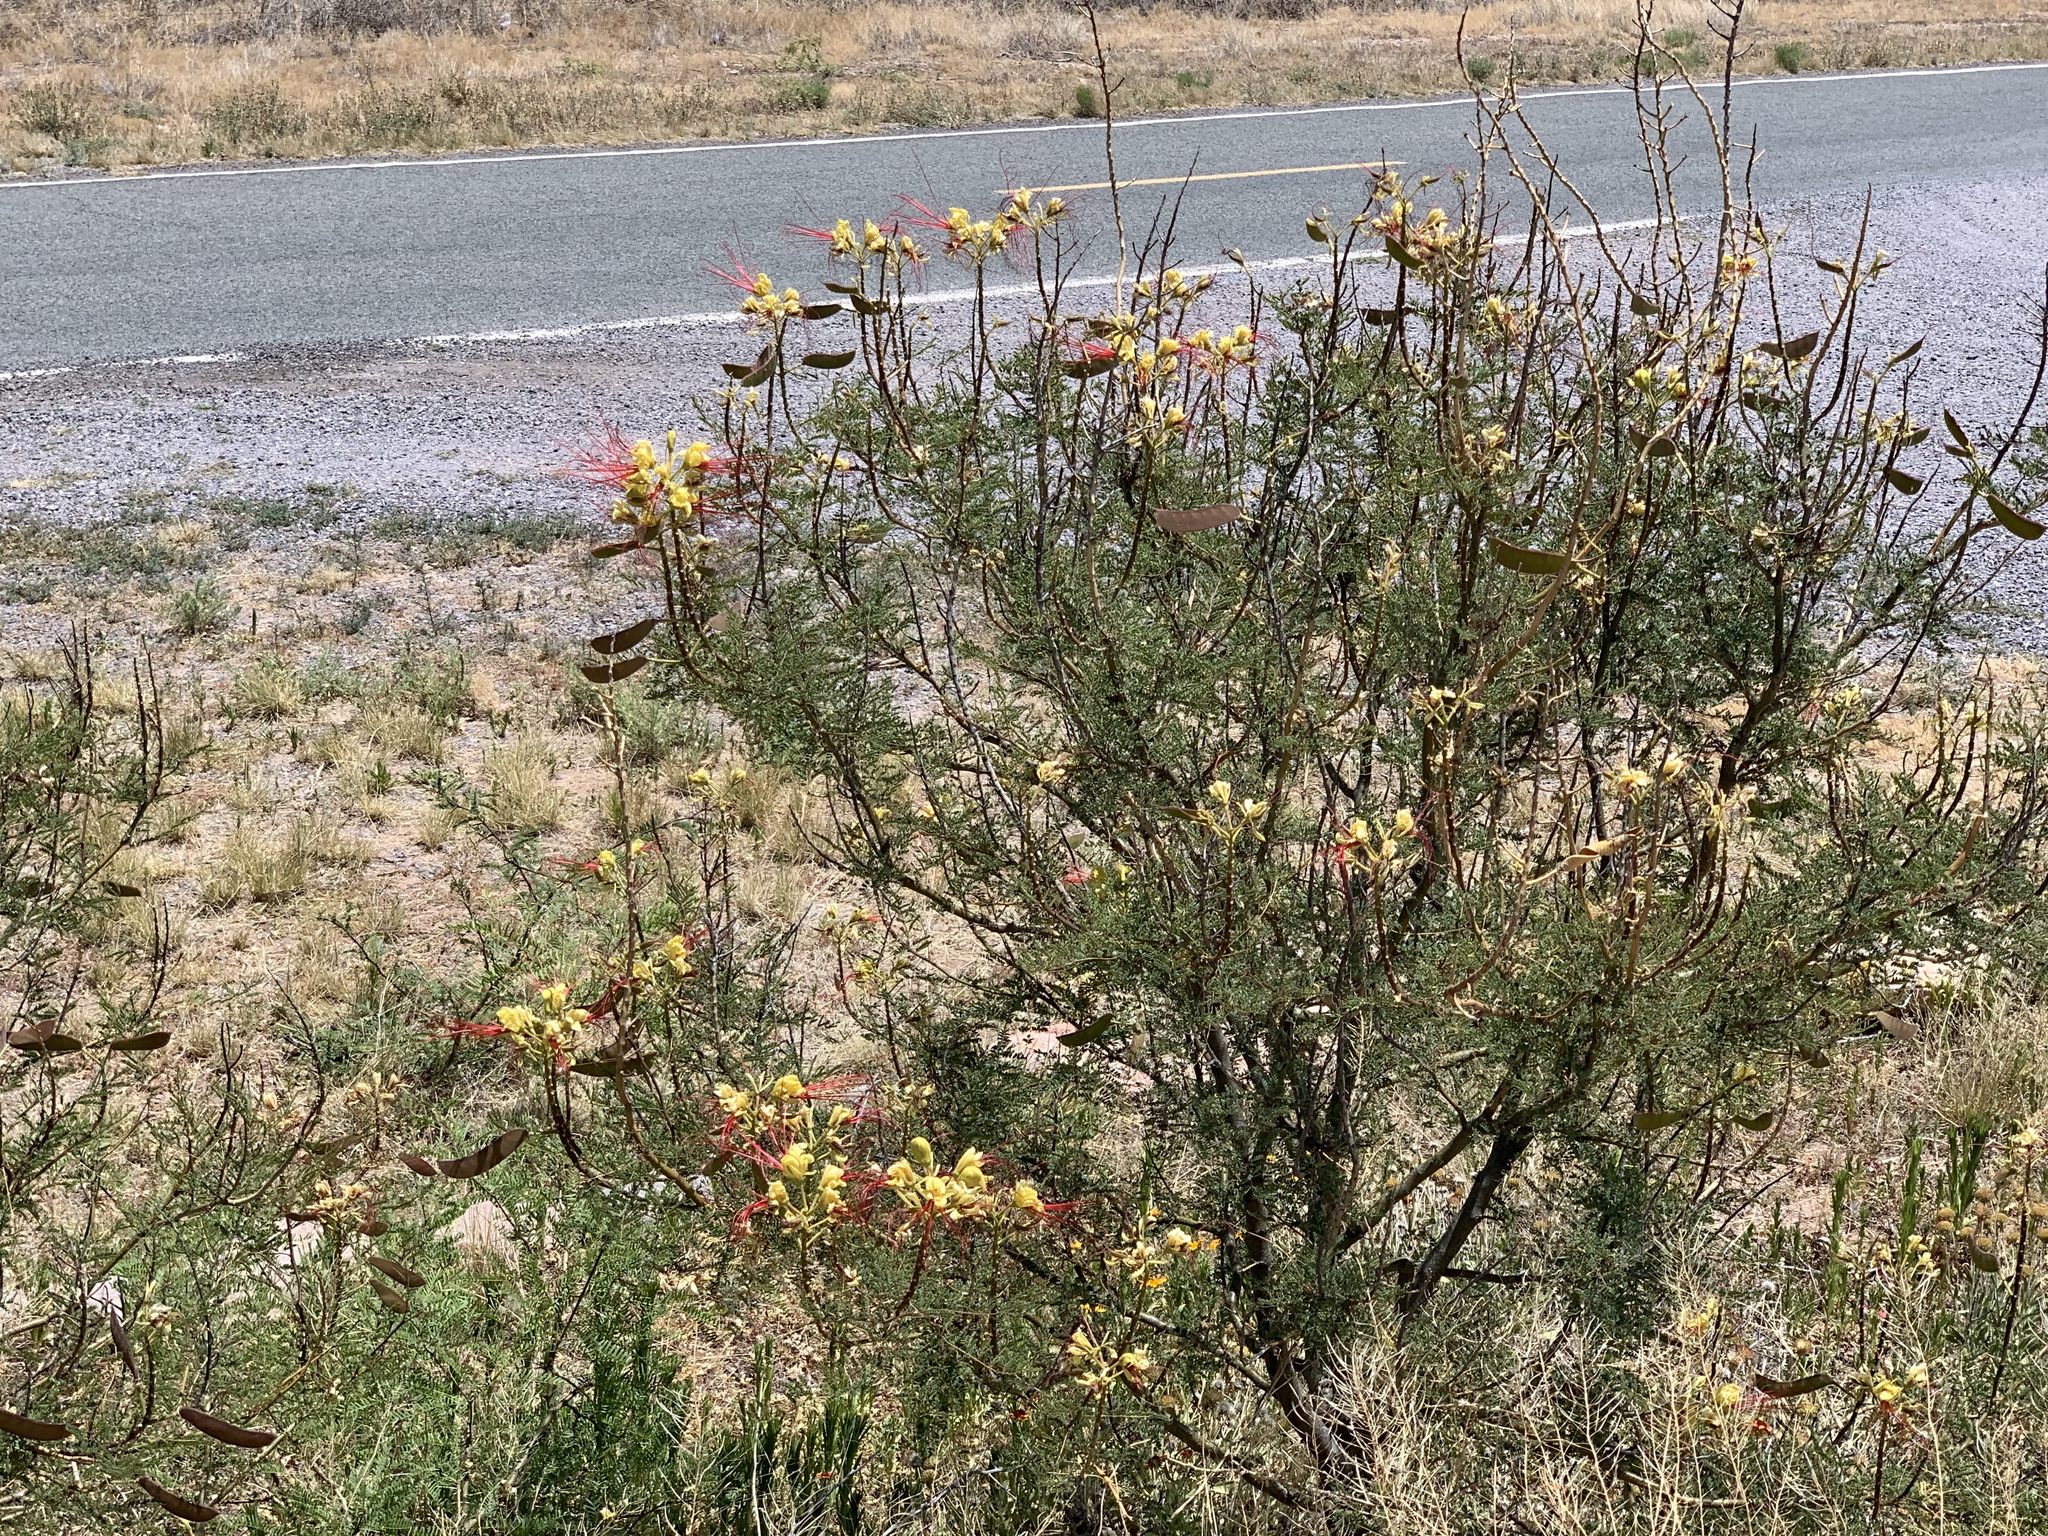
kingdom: Plantae
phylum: Tracheophyta
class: Magnoliopsida
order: Fabales
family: Fabaceae
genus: Erythrostemon
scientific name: Erythrostemon gilliesii
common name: Bird-of-paradise shrub
